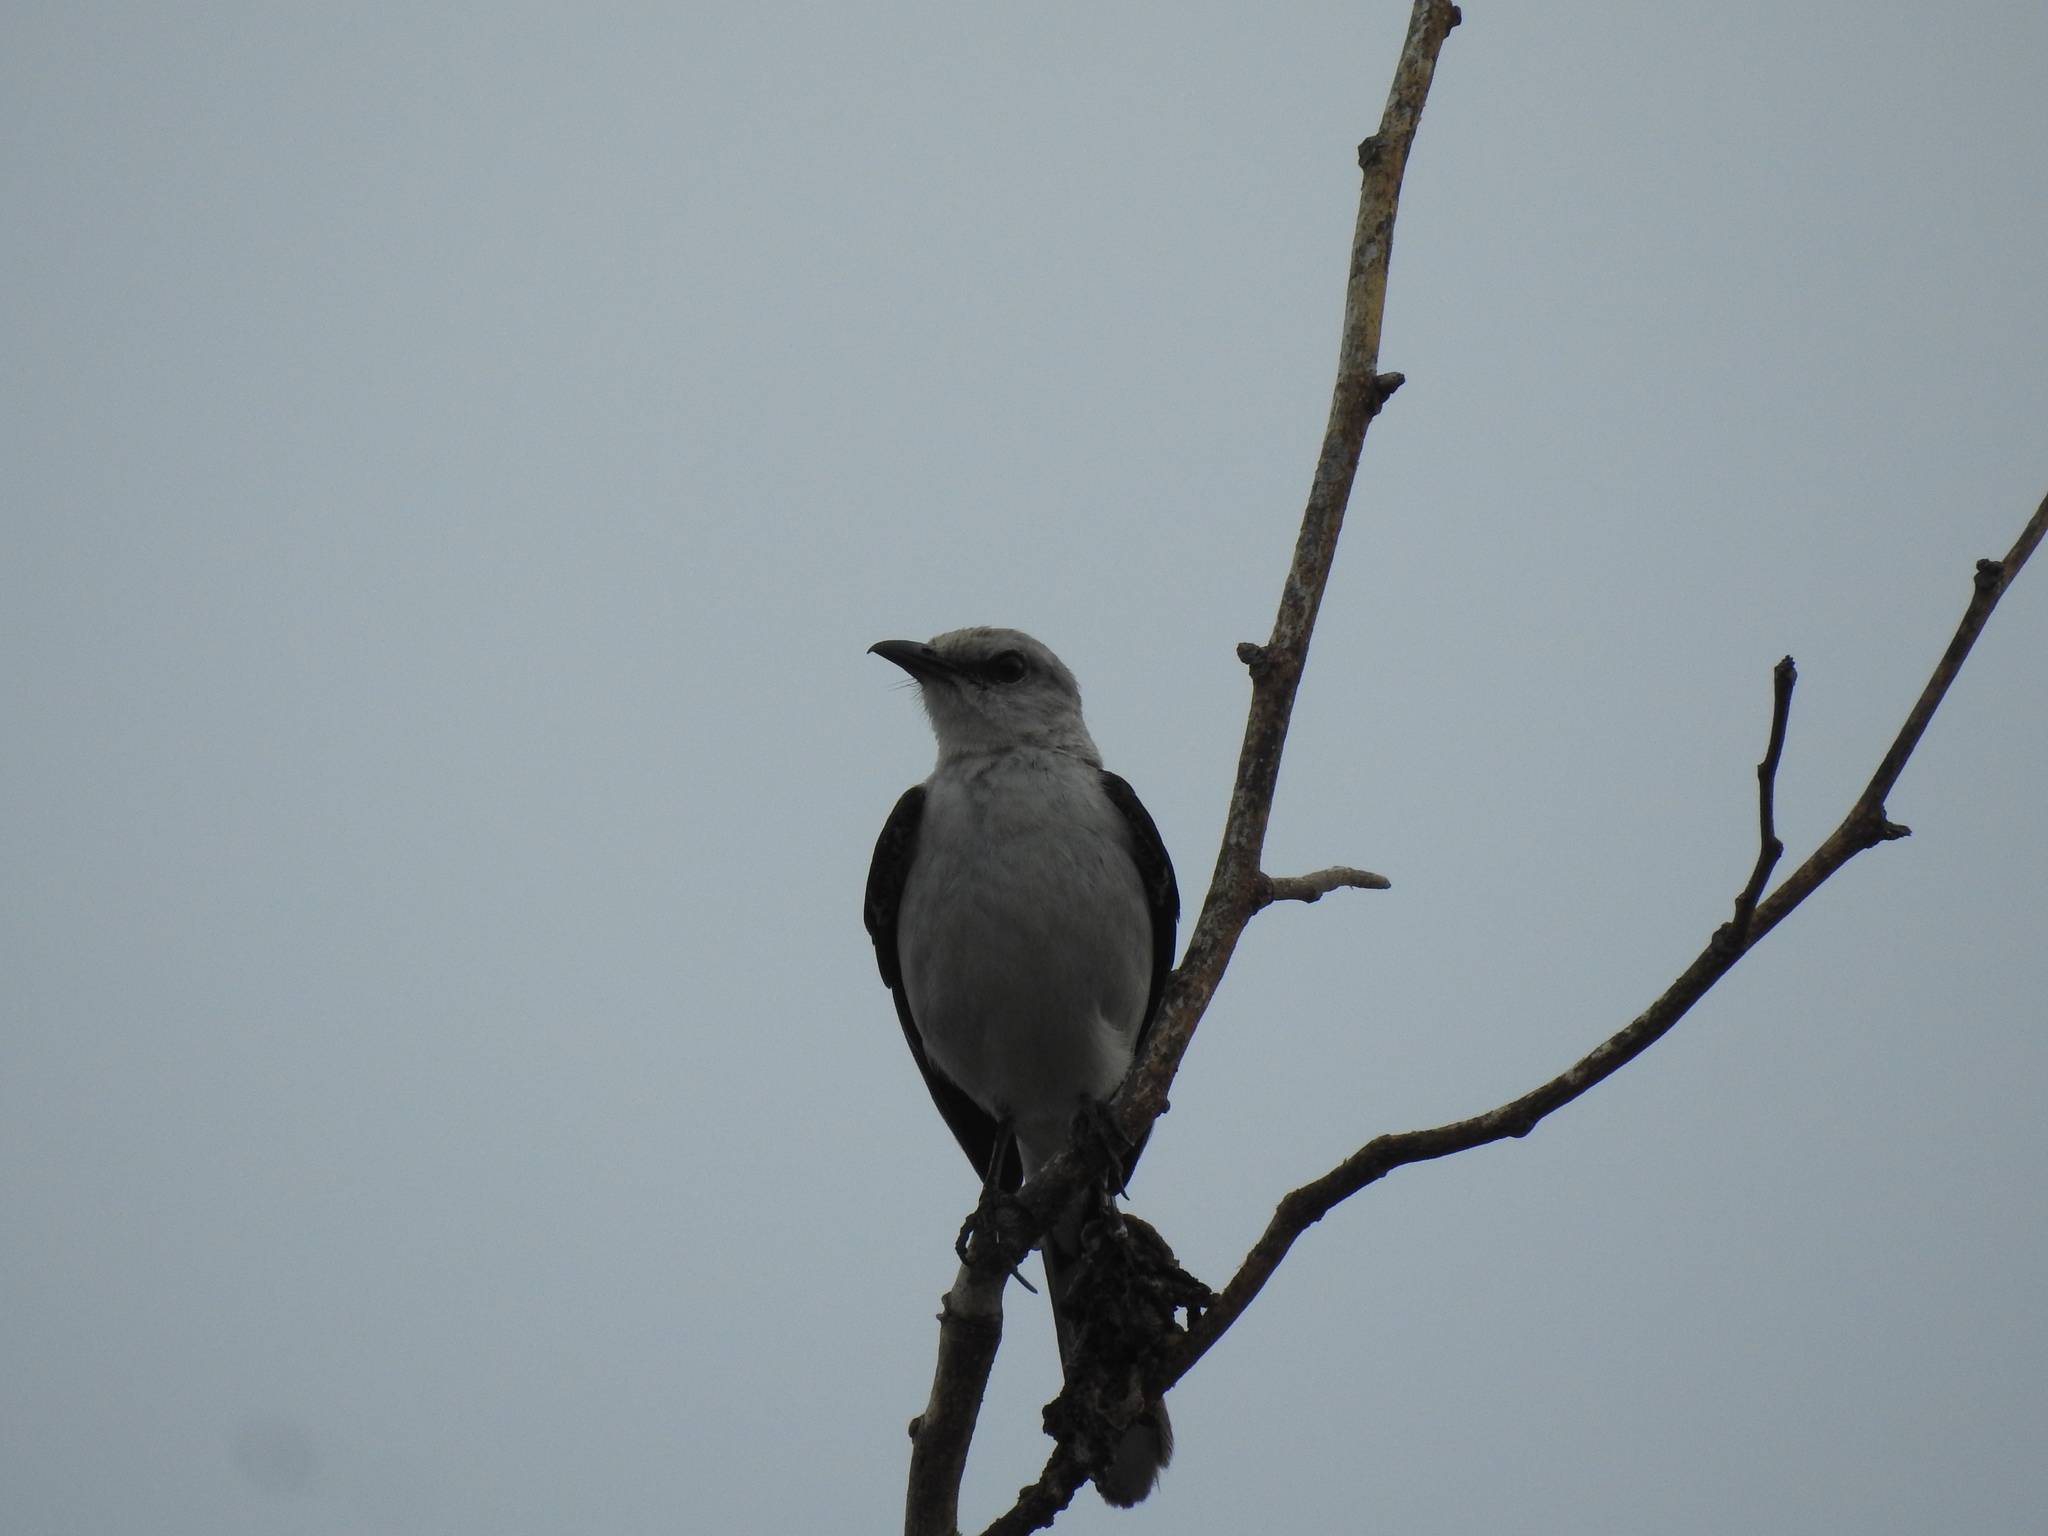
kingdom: Animalia
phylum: Chordata
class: Aves
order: Passeriformes
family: Mimidae
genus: Mimus
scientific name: Mimus gilvus
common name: Tropical mockingbird
